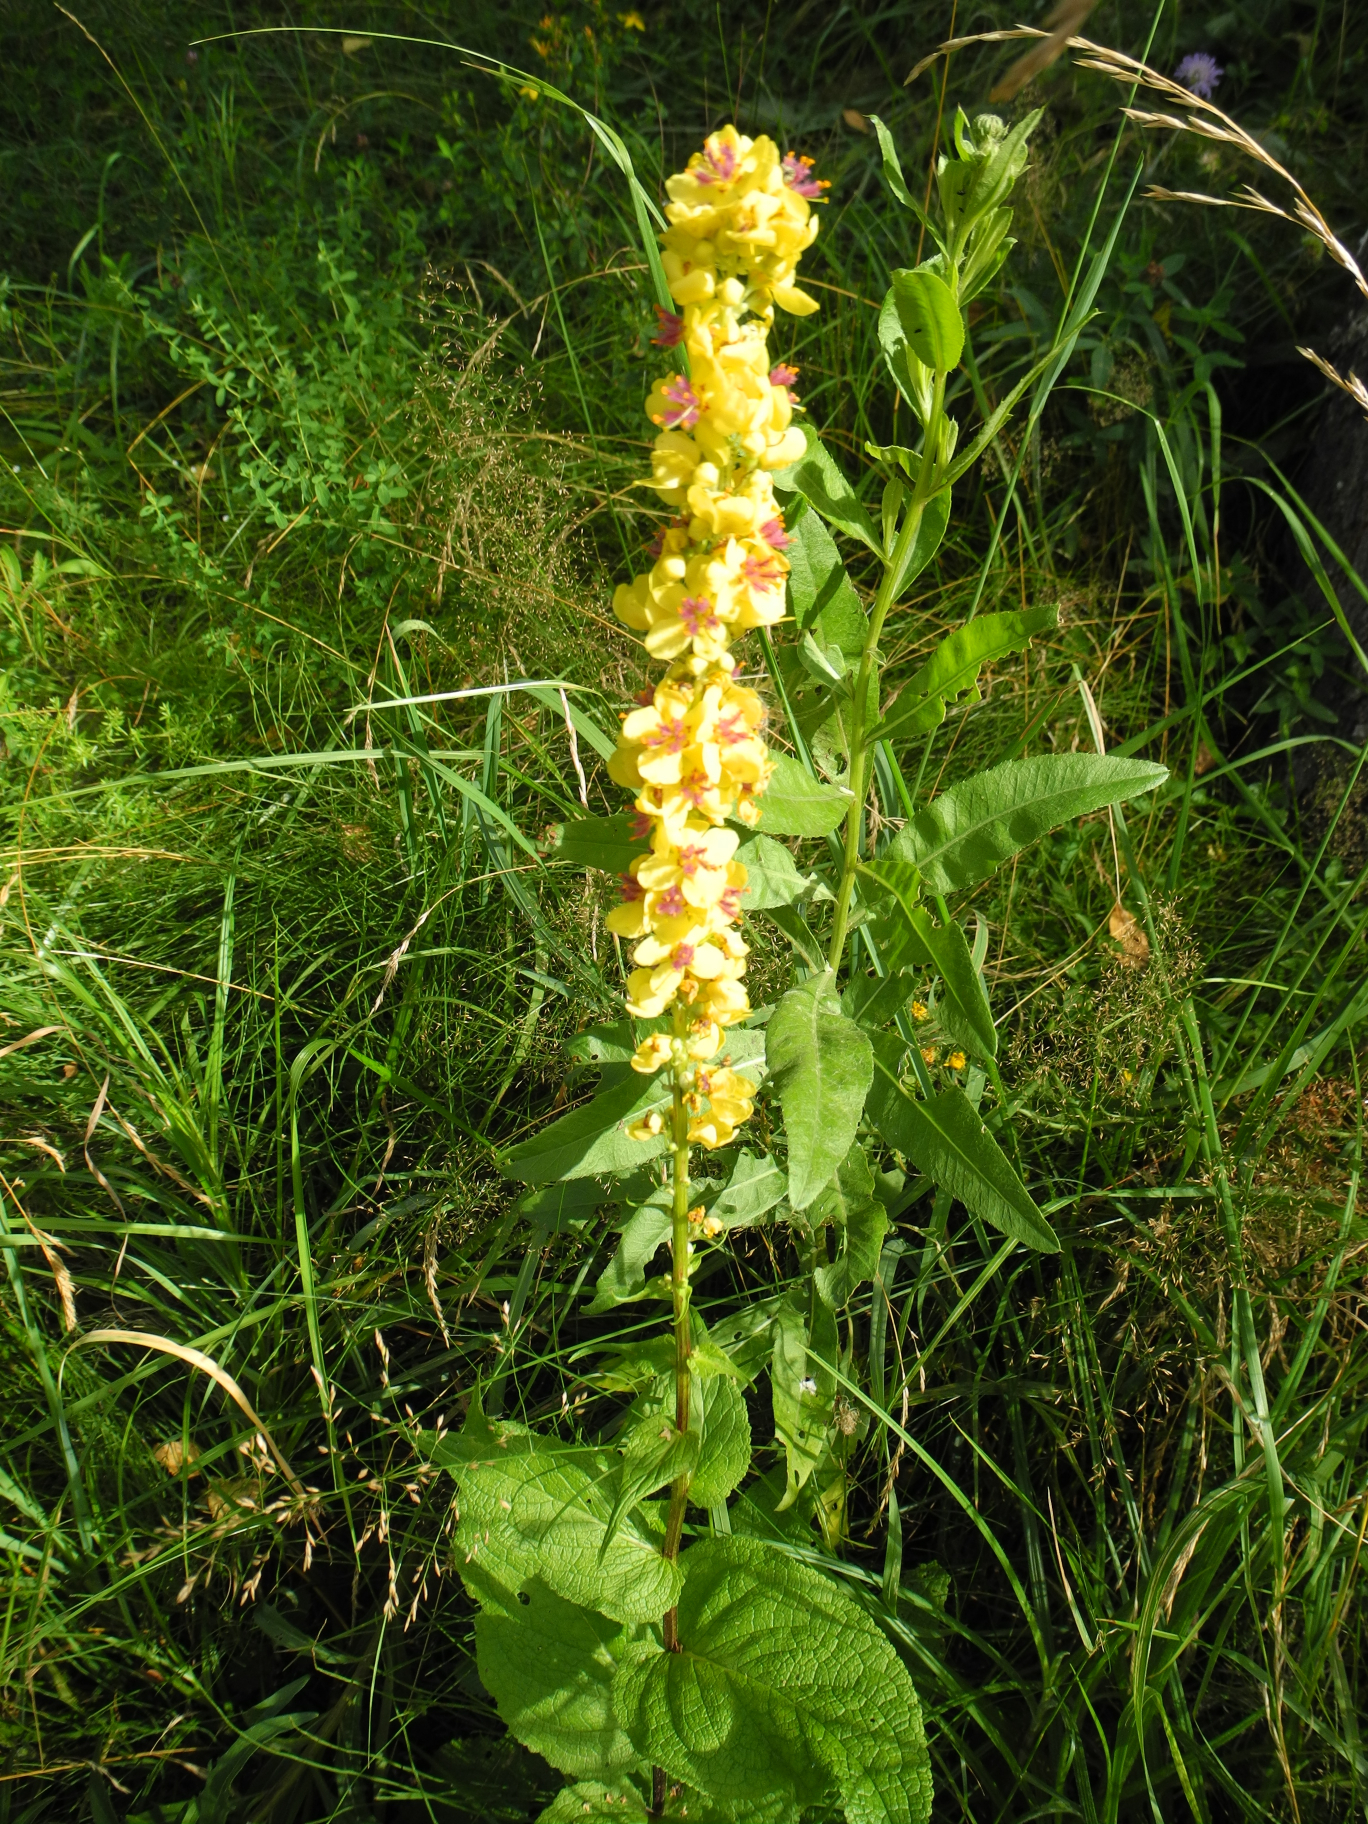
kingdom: Plantae
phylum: Tracheophyta
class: Magnoliopsida
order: Lamiales
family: Scrophulariaceae
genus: Verbascum
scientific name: Verbascum nigrum
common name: Dark mullein
